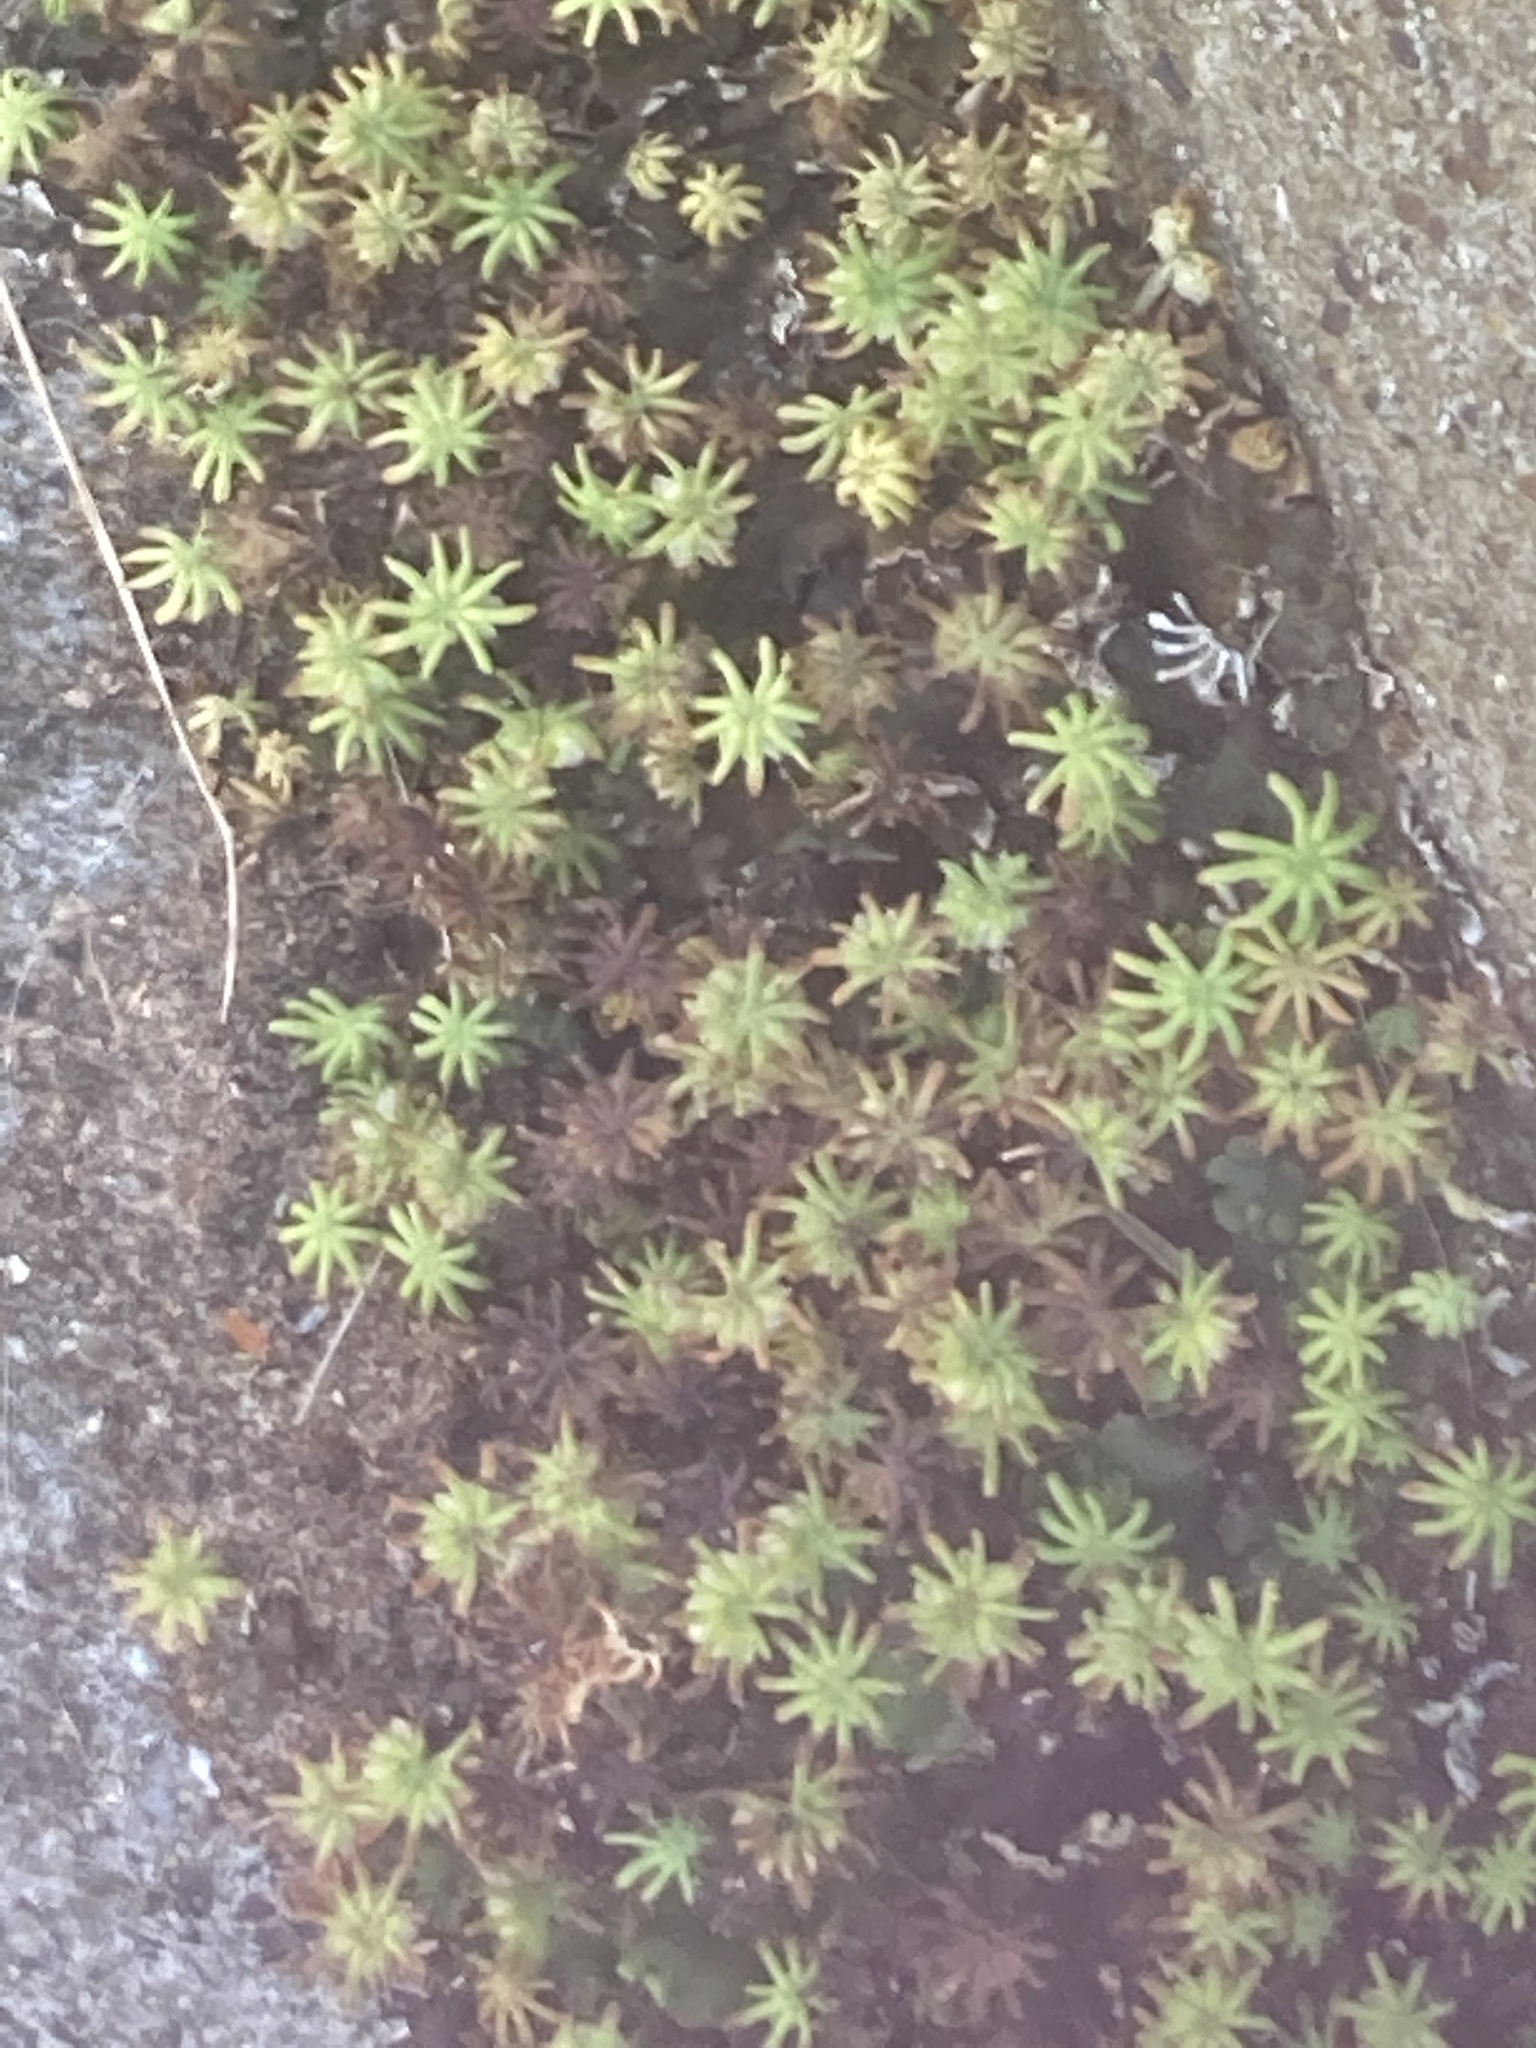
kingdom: Plantae
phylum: Marchantiophyta
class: Marchantiopsida
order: Marchantiales
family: Marchantiaceae
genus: Marchantia
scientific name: Marchantia polymorpha
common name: Common liverwort
